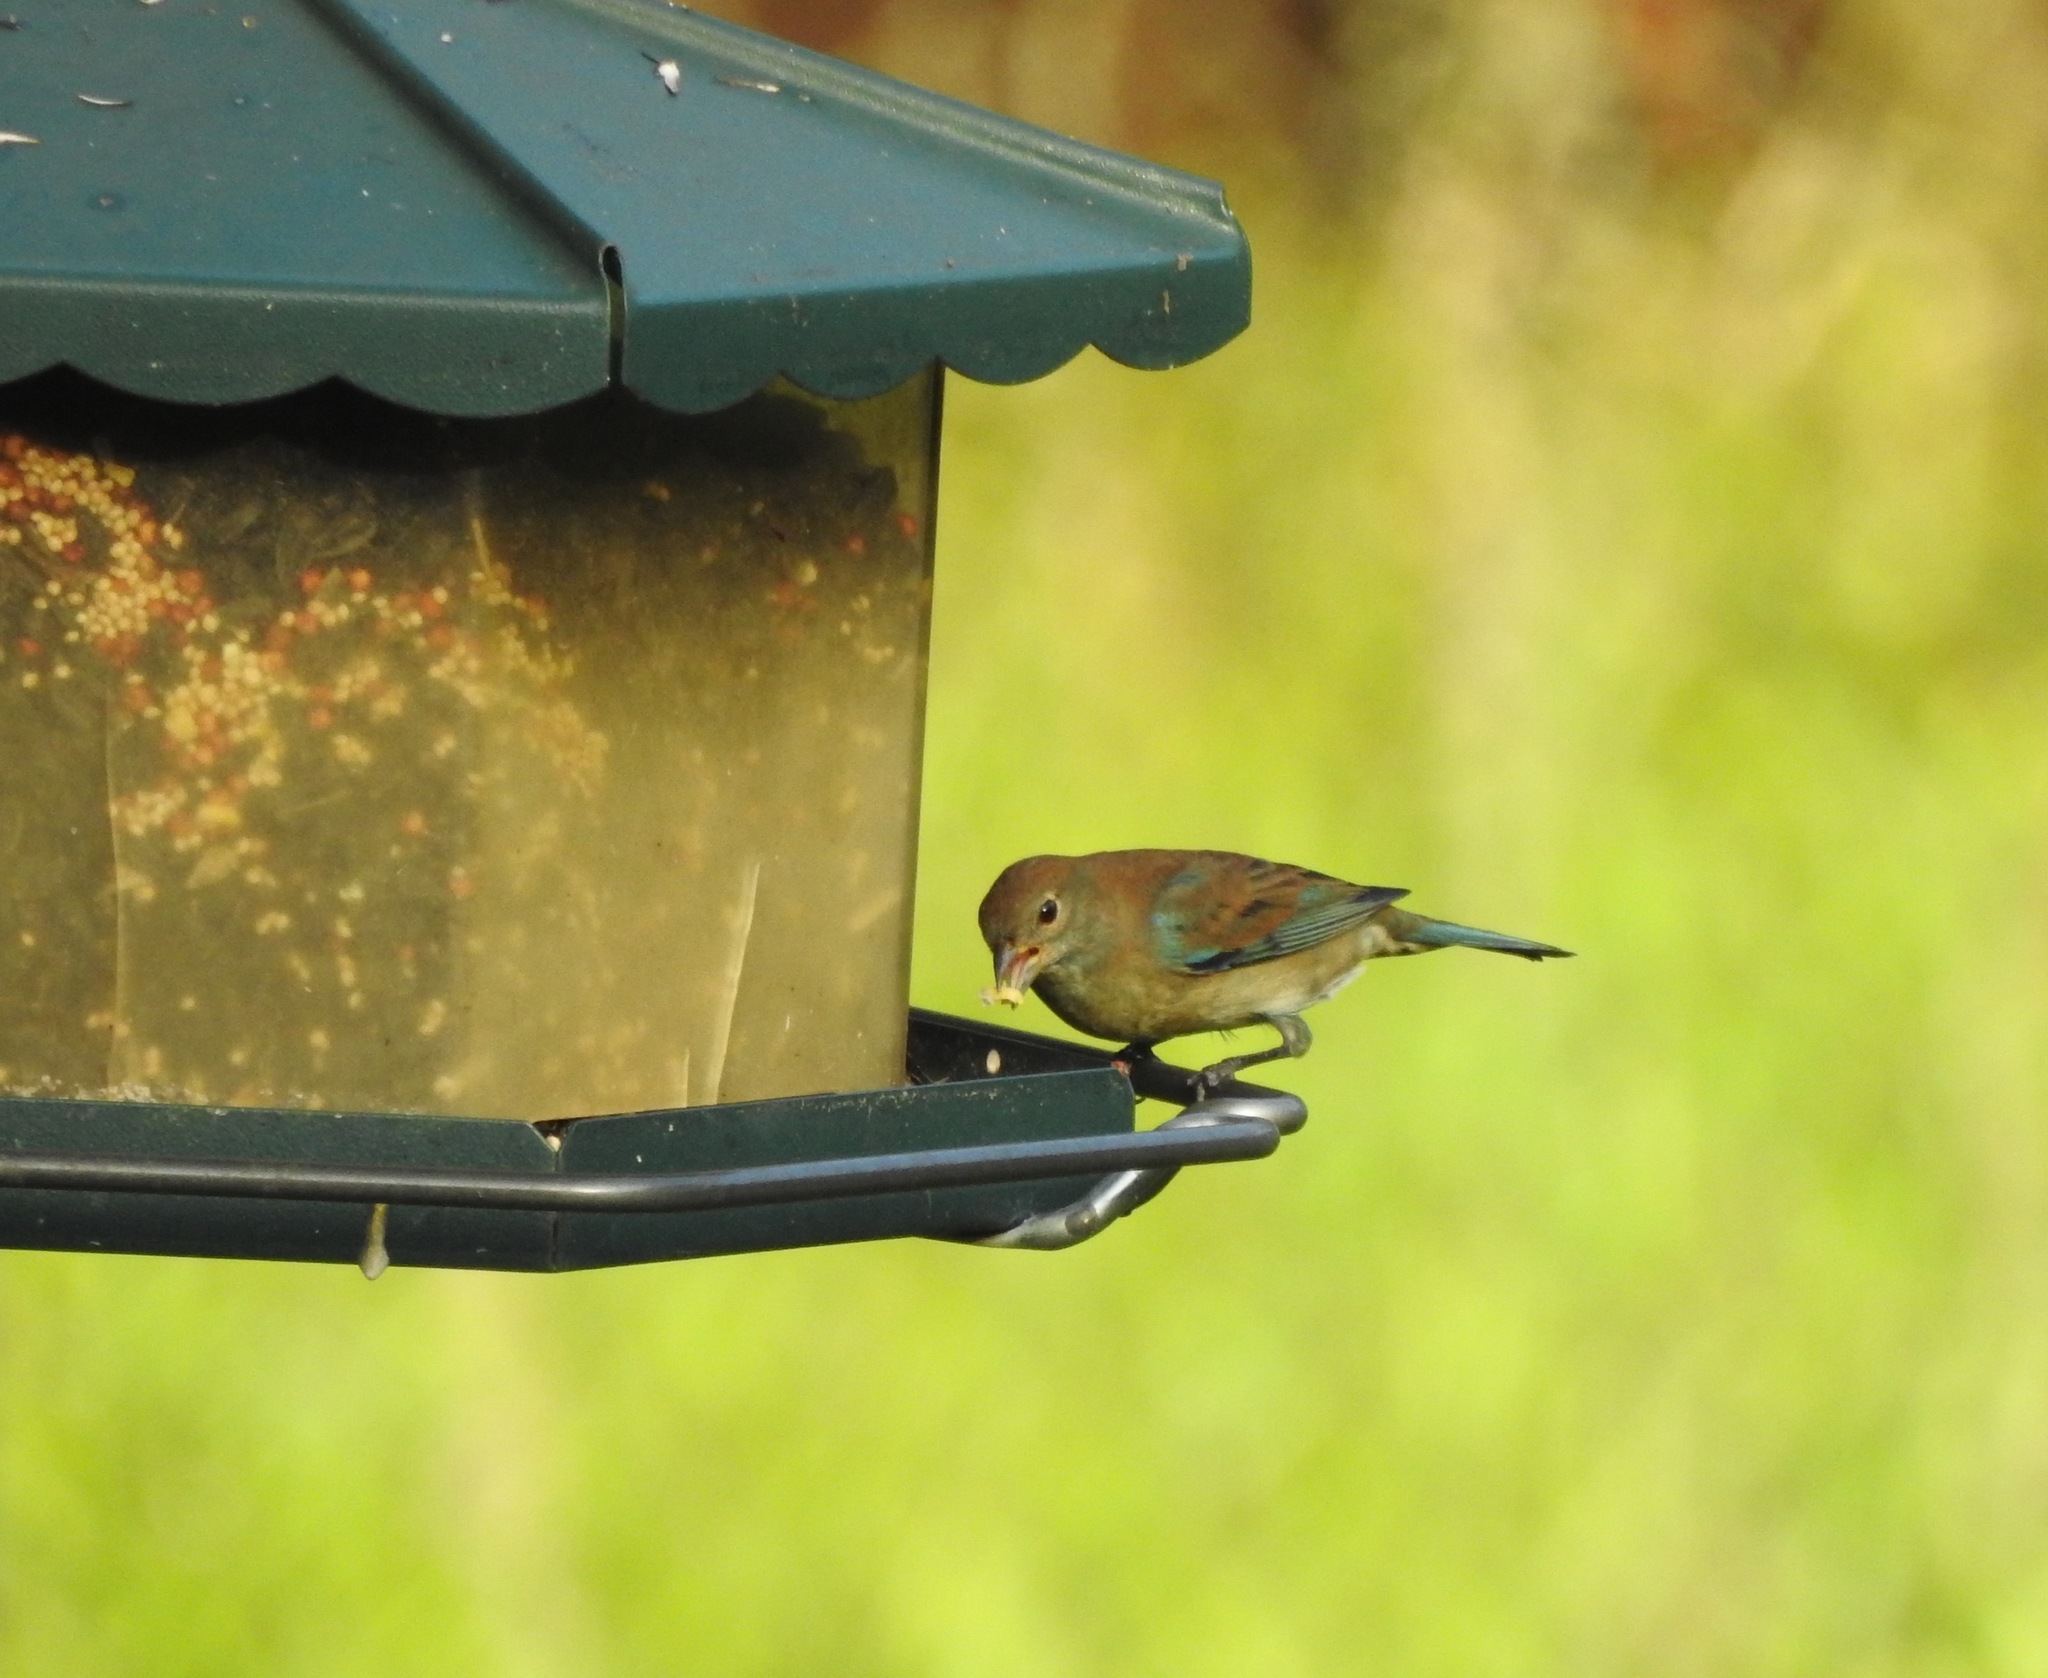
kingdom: Animalia
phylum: Chordata
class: Aves
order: Passeriformes
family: Cardinalidae
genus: Passerina
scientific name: Passerina cyanea
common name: Indigo bunting
